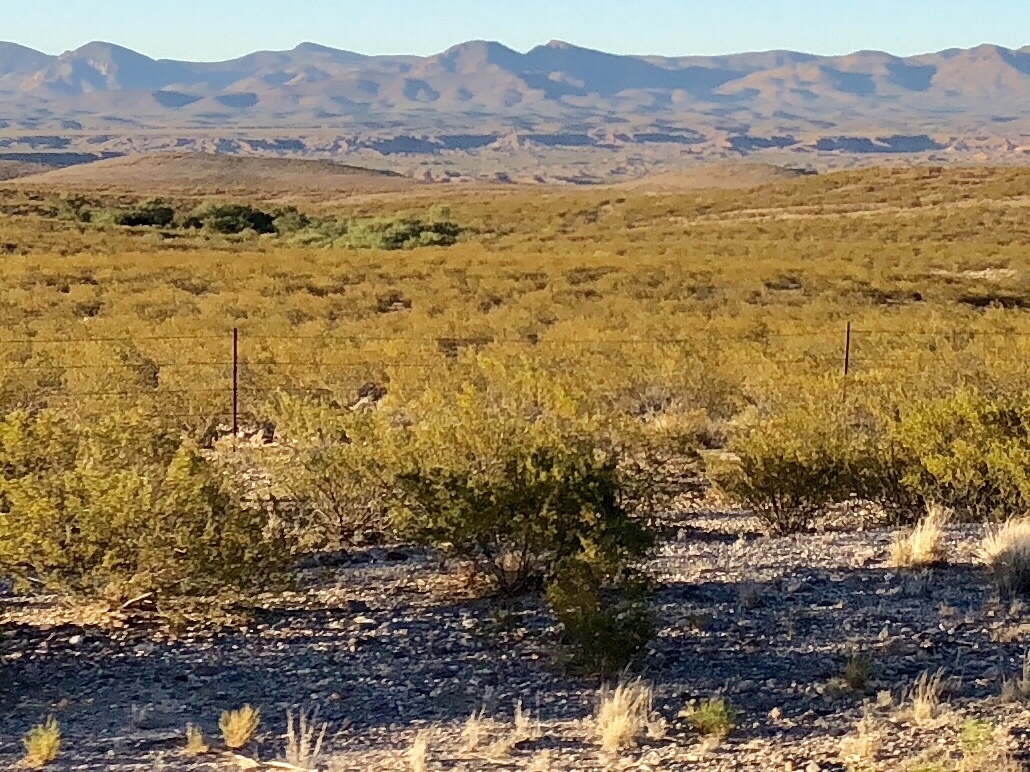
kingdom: Plantae
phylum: Tracheophyta
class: Magnoliopsida
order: Zygophyllales
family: Zygophyllaceae
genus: Larrea
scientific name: Larrea tridentata
